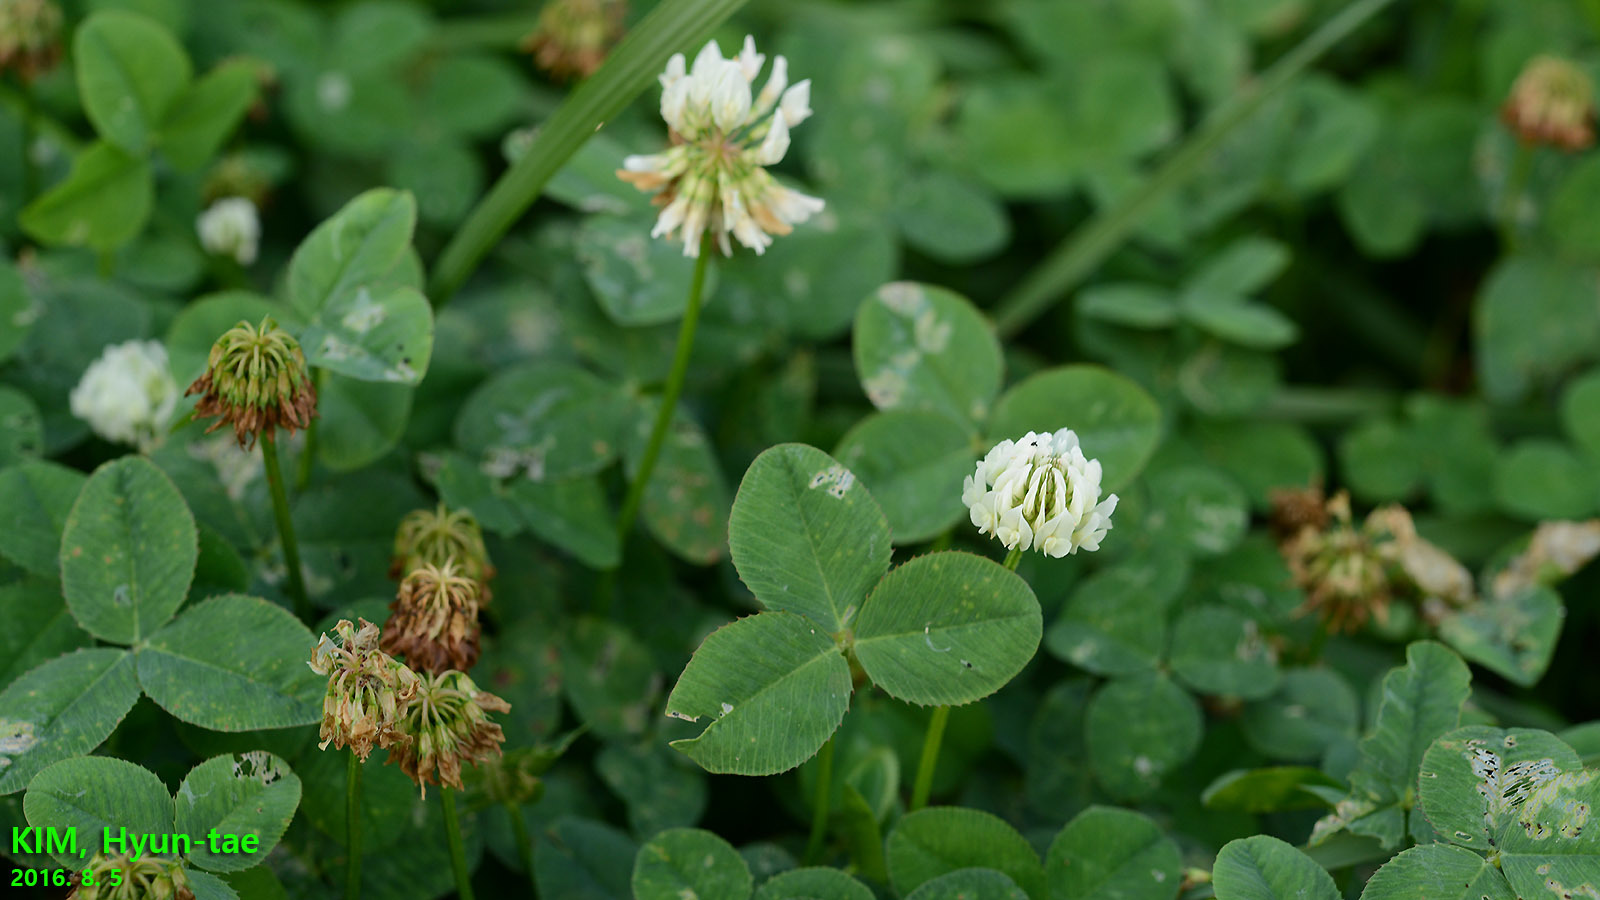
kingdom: Plantae
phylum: Tracheophyta
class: Magnoliopsida
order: Fabales
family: Fabaceae
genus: Trifolium
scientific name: Trifolium repens
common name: White clover
